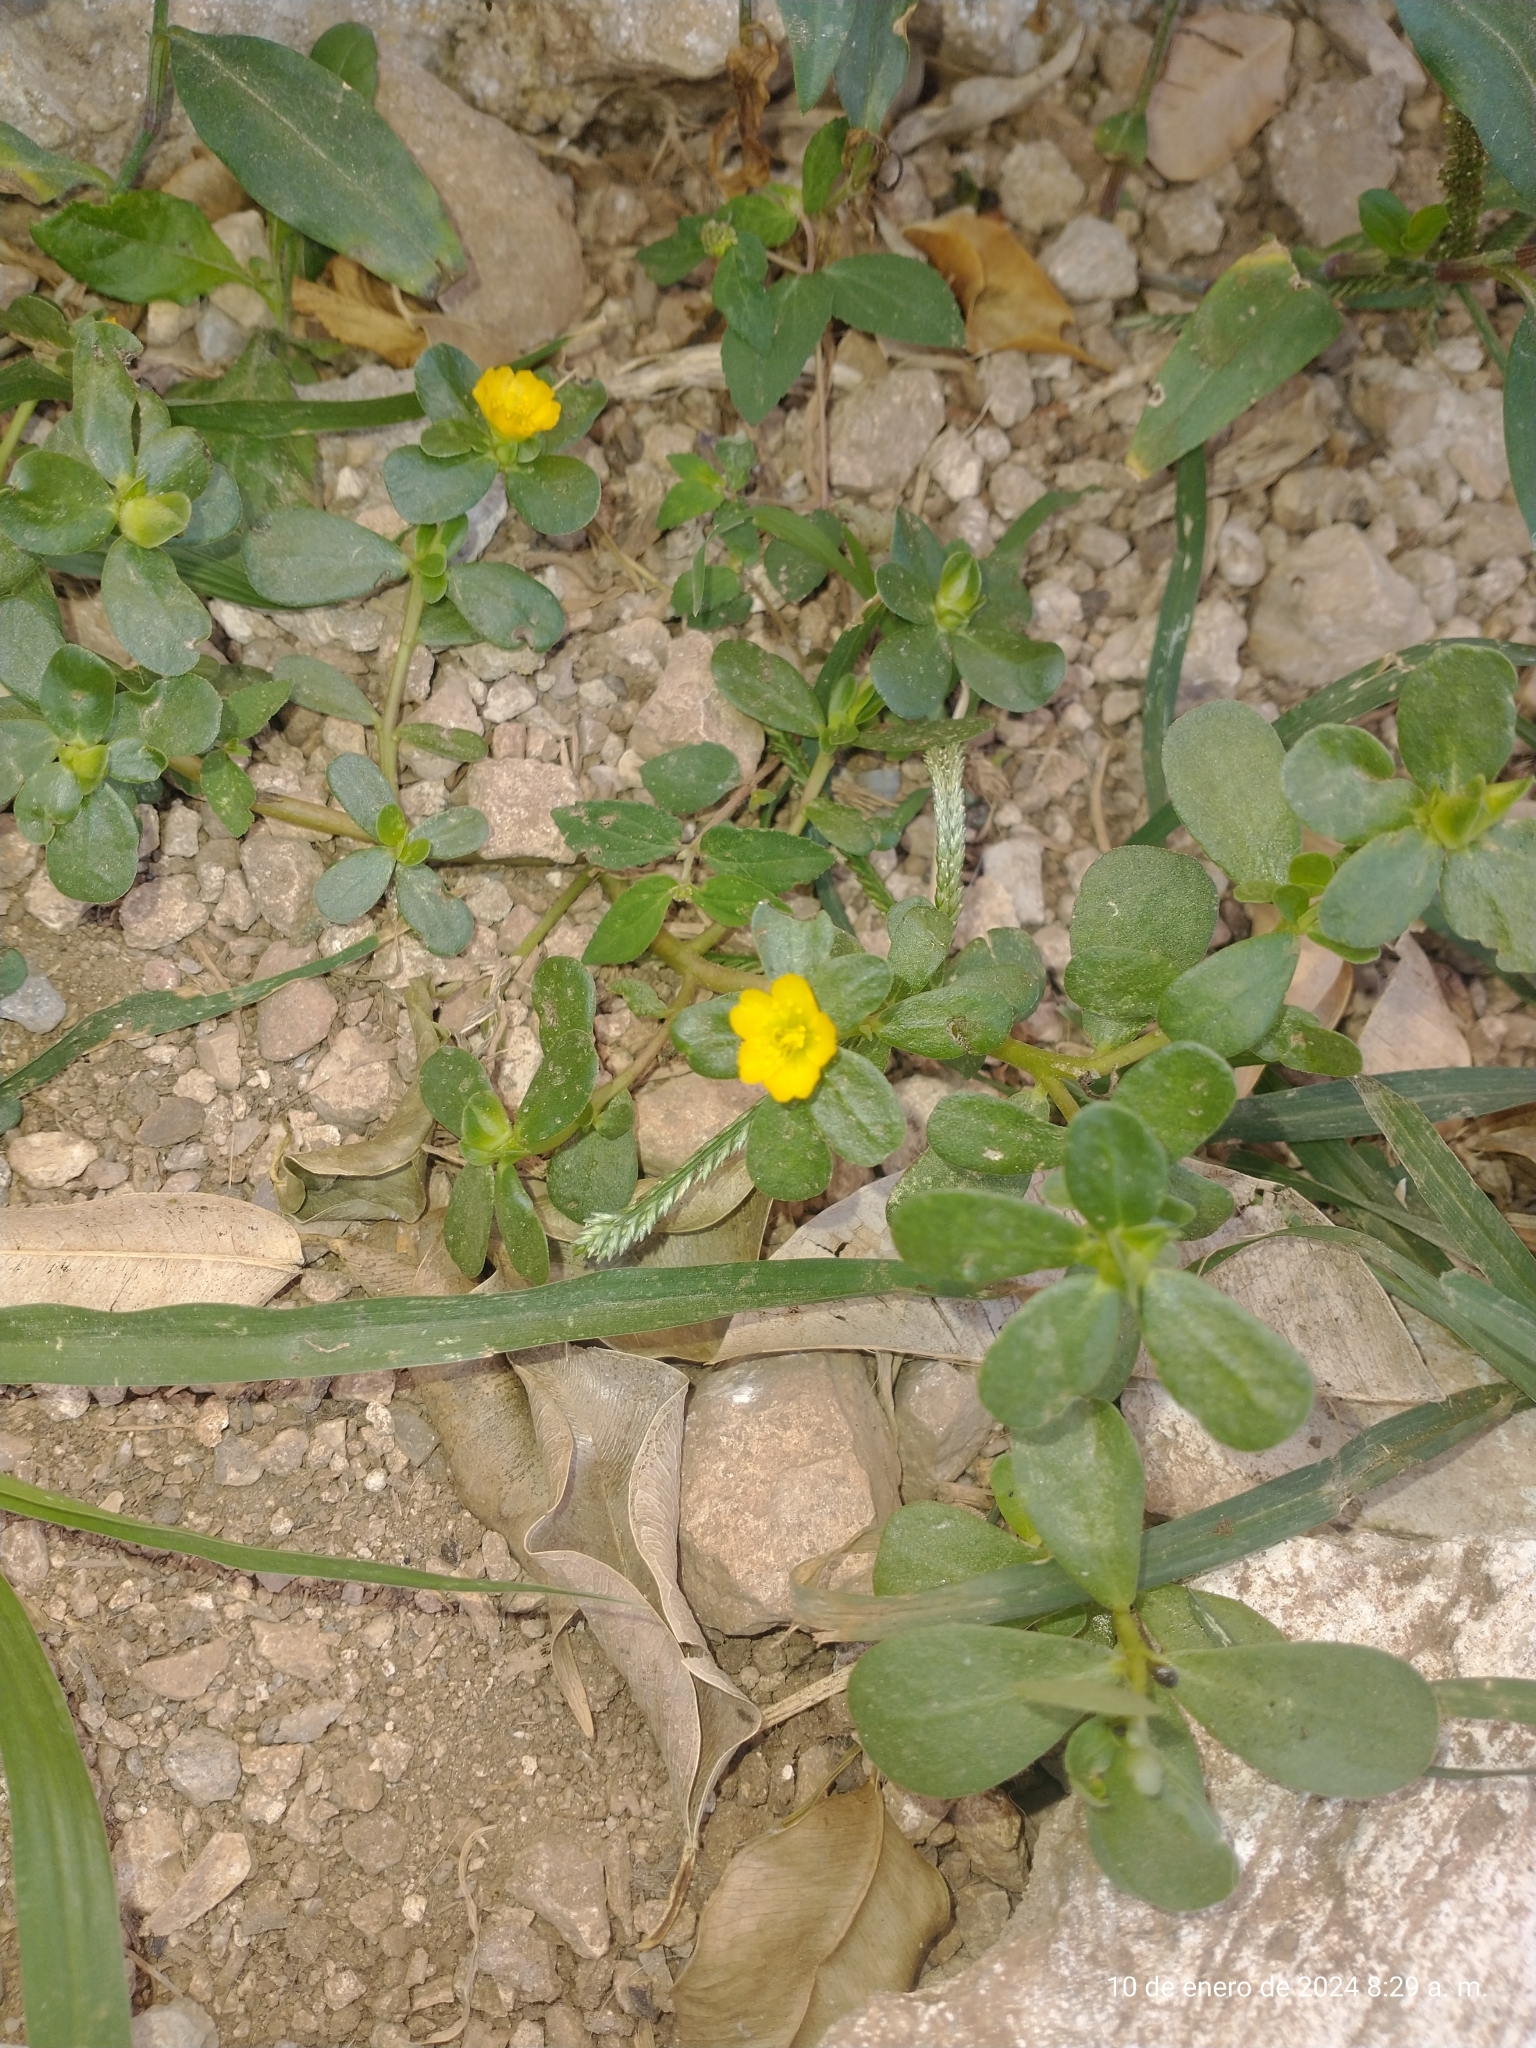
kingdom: Plantae
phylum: Tracheophyta
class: Magnoliopsida
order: Caryophyllales
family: Portulacaceae
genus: Portulaca
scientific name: Portulaca oleracea
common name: Common purslane
